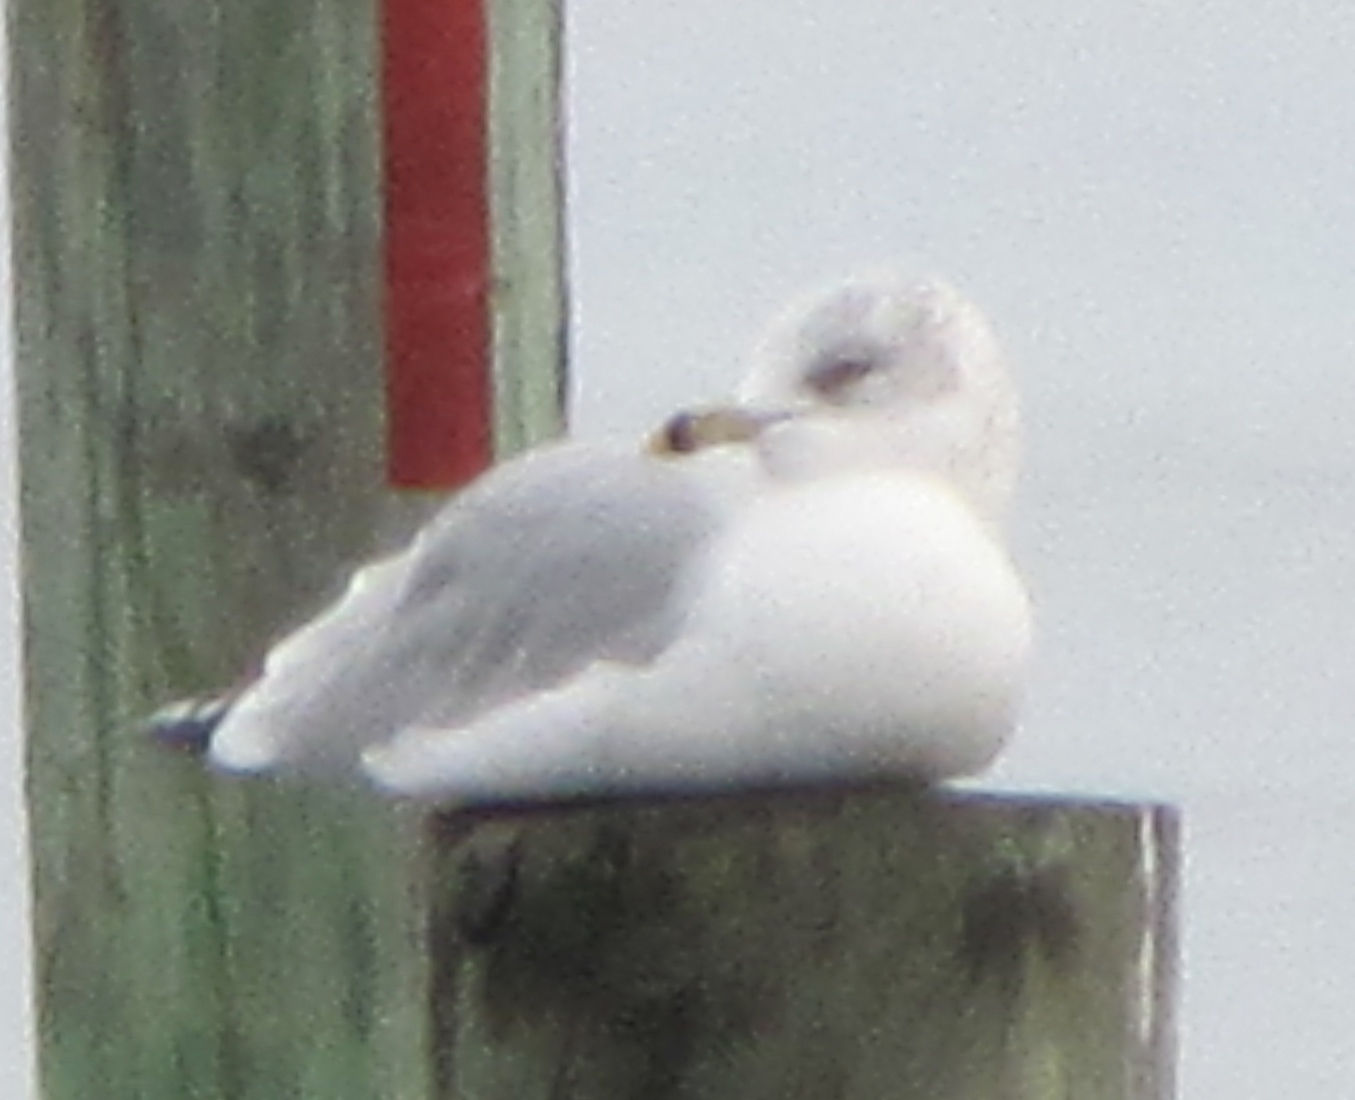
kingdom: Animalia
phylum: Chordata
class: Aves
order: Charadriiformes
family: Laridae
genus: Larus
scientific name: Larus delawarensis
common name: Ring-billed gull
